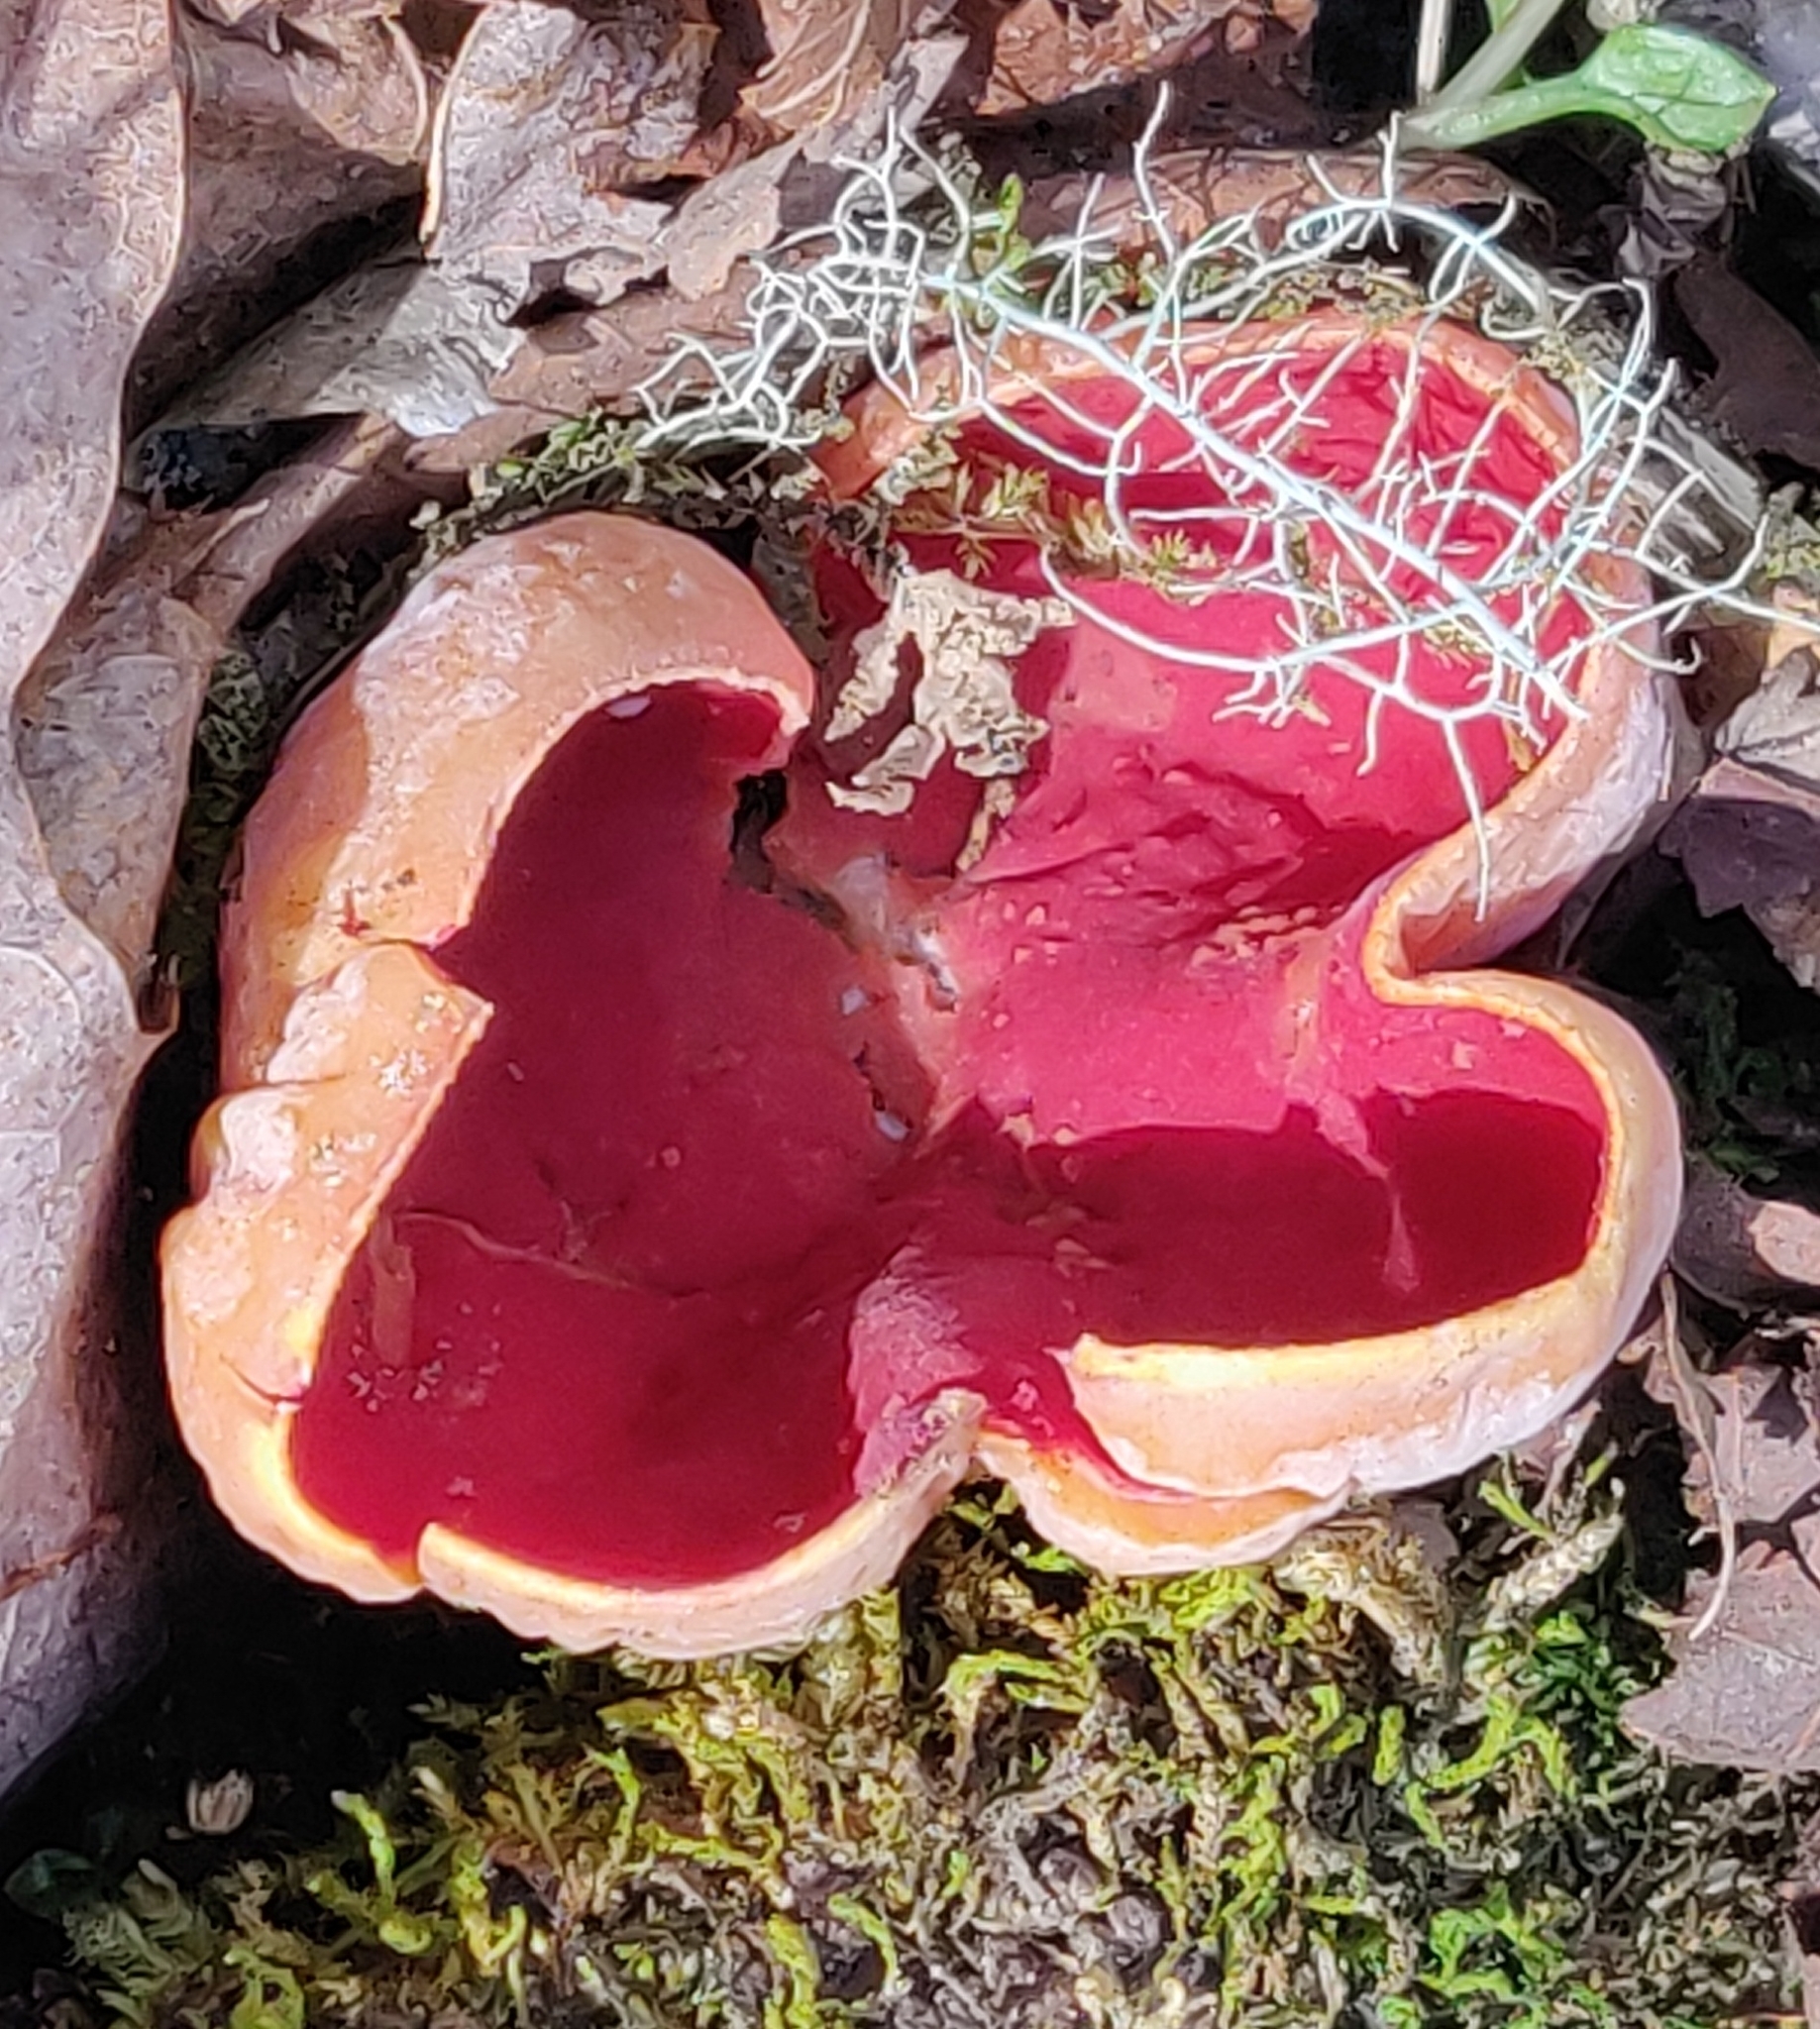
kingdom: Fungi
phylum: Ascomycota
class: Pezizomycetes
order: Pezizales
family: Sarcoscyphaceae
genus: Sarcoscypha
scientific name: Sarcoscypha austriaca
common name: Scarlet elfcup
